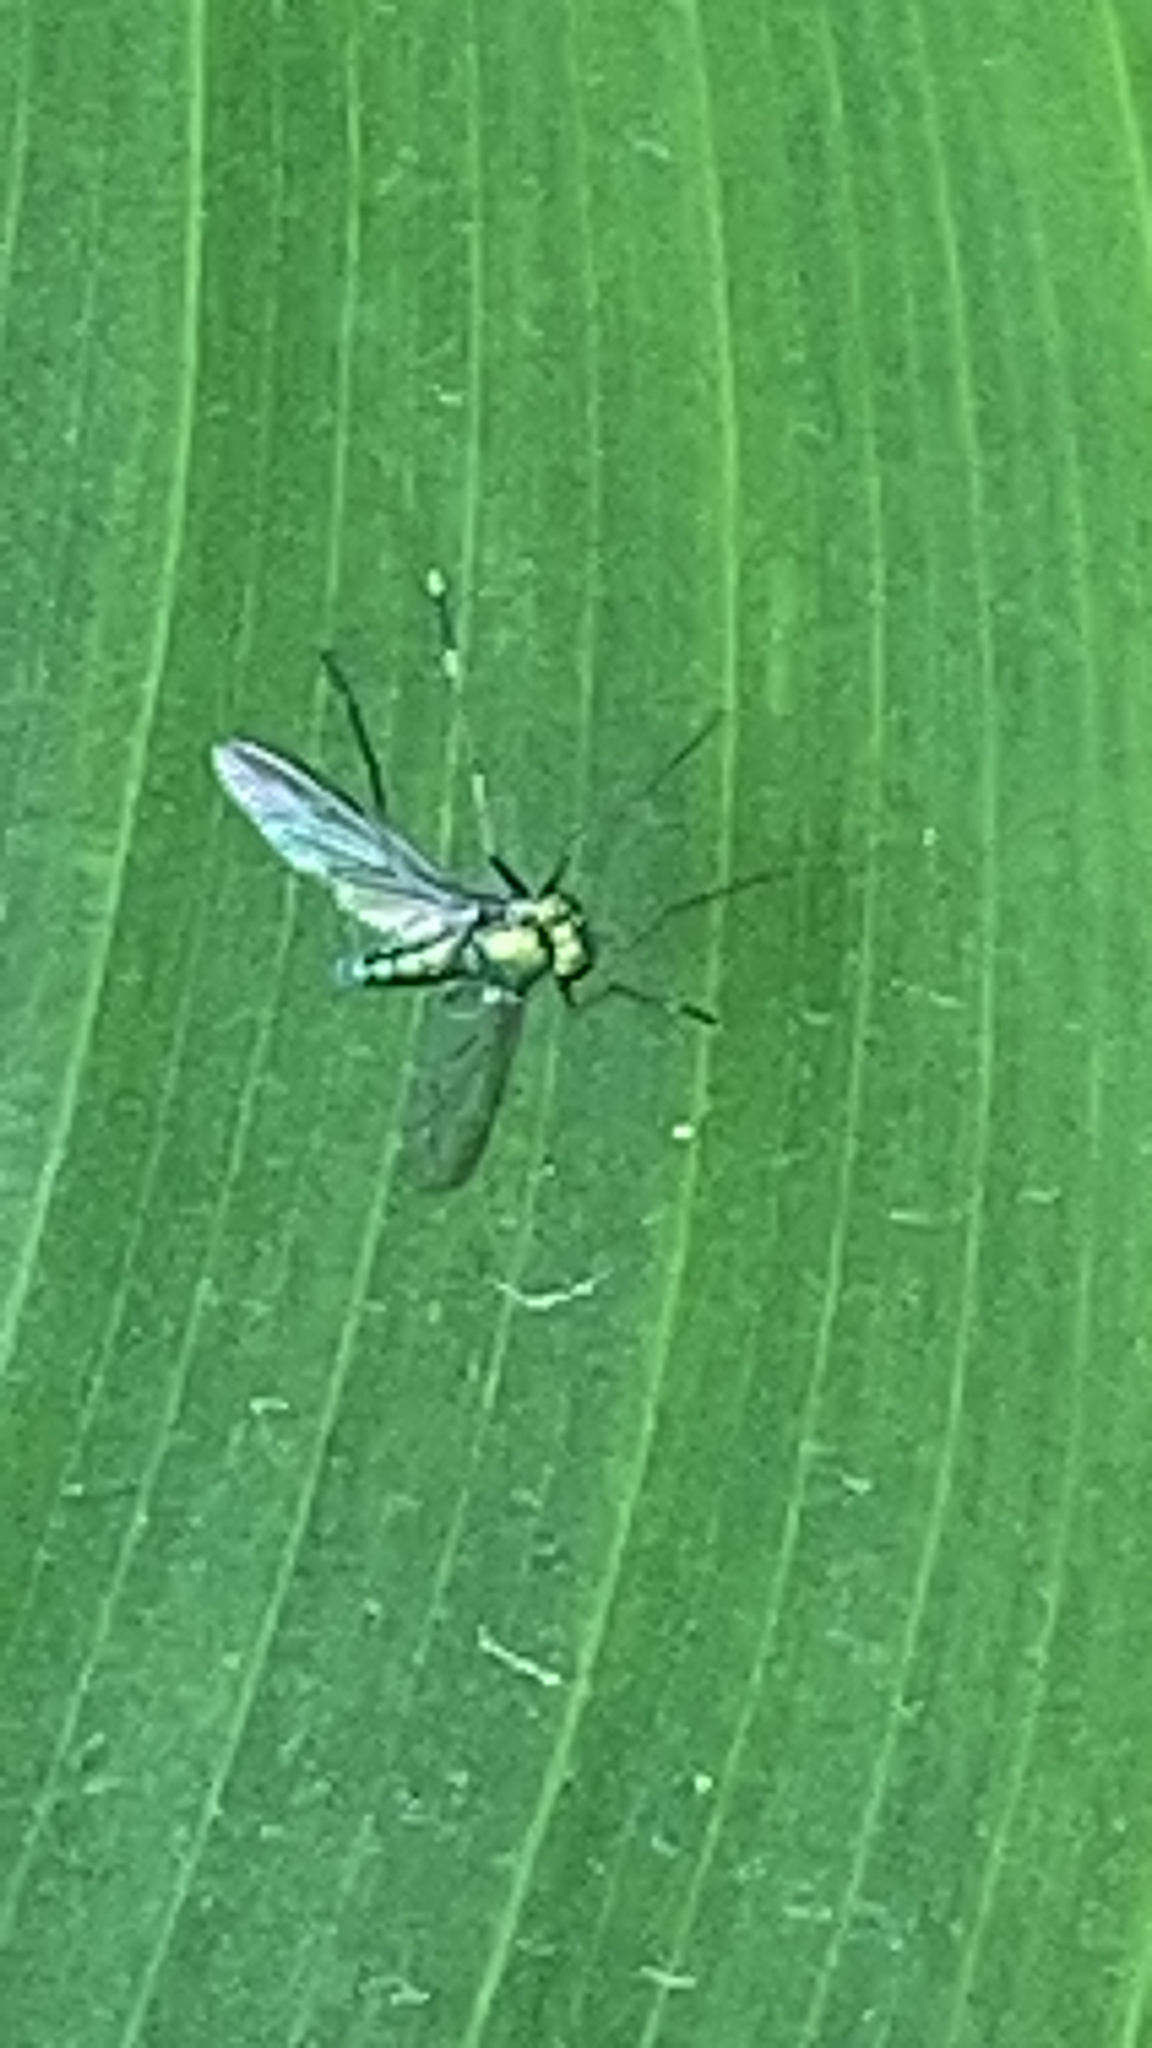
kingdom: Animalia
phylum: Arthropoda
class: Insecta
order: Diptera
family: Dolichopodidae
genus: Chrysosoma
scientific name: Chrysosoma leucopogon
